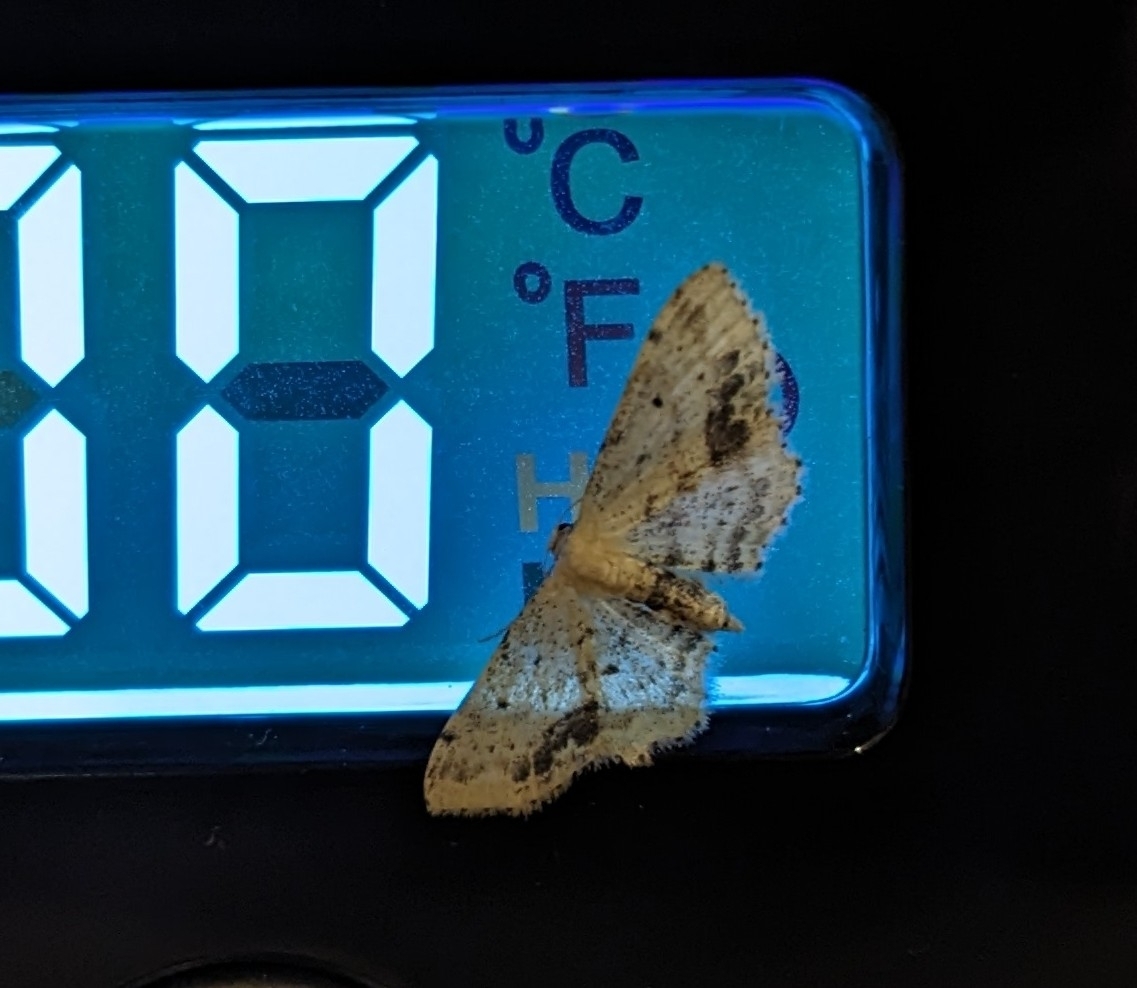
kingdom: Animalia
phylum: Arthropoda
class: Insecta
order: Lepidoptera
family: Geometridae
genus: Idaea
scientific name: Idaea dimidiata
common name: Single-dotted wave
